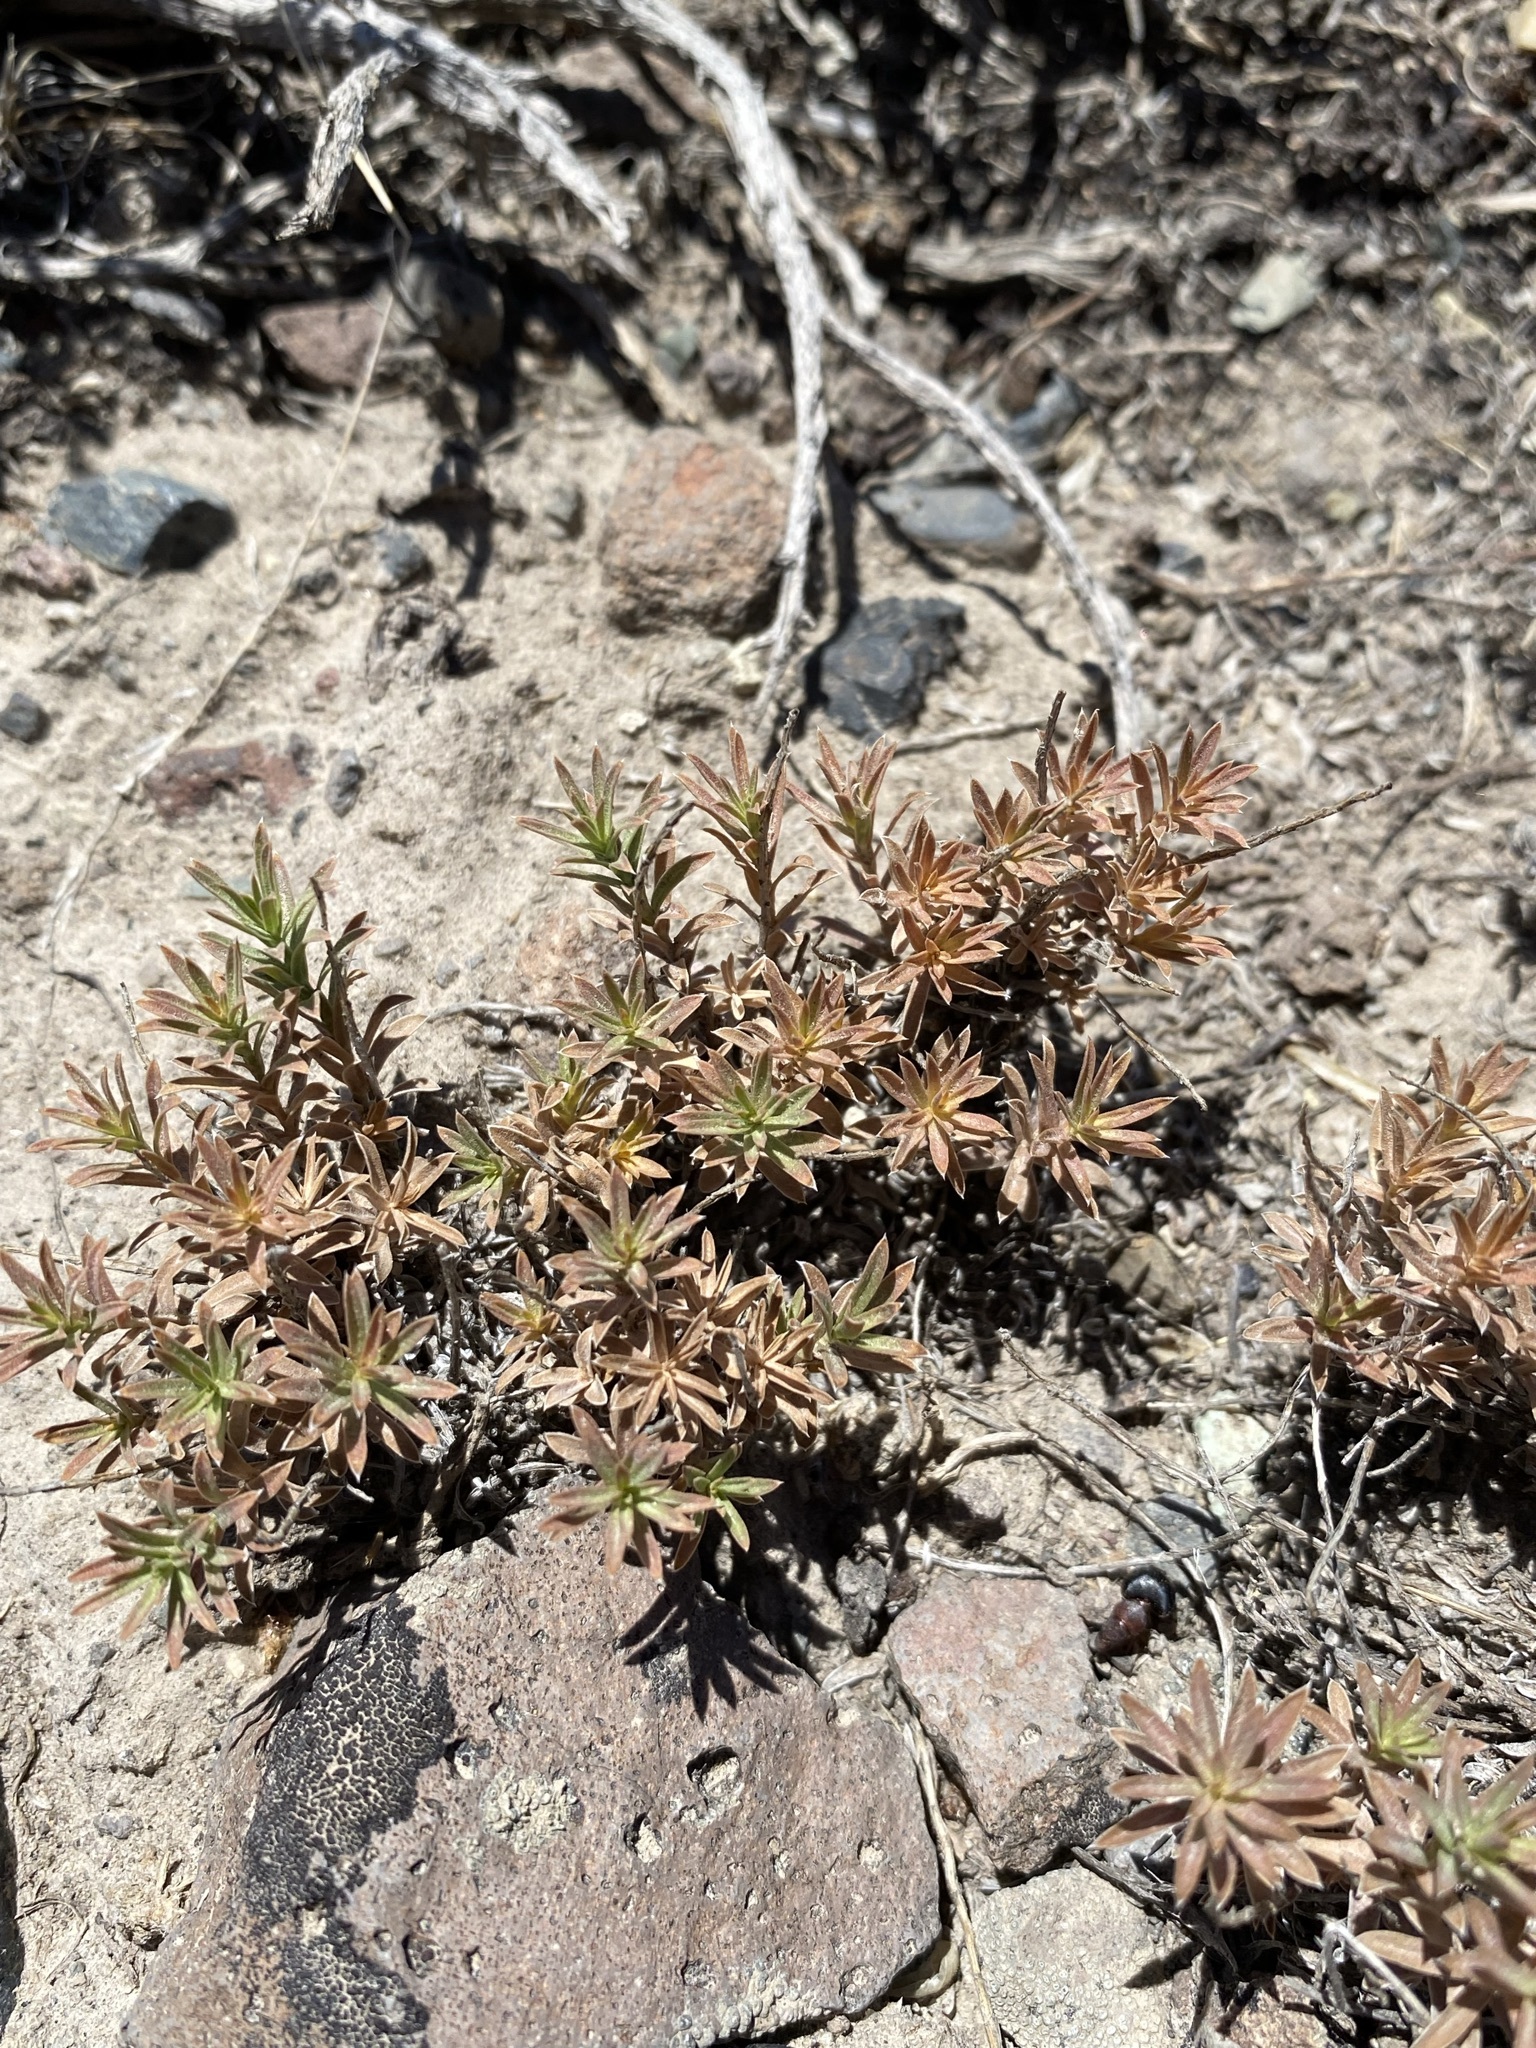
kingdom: Plantae
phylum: Tracheophyta
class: Magnoliopsida
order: Asterales
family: Asteraceae
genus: Ionactis
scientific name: Ionactis alpina
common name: Crag aster
